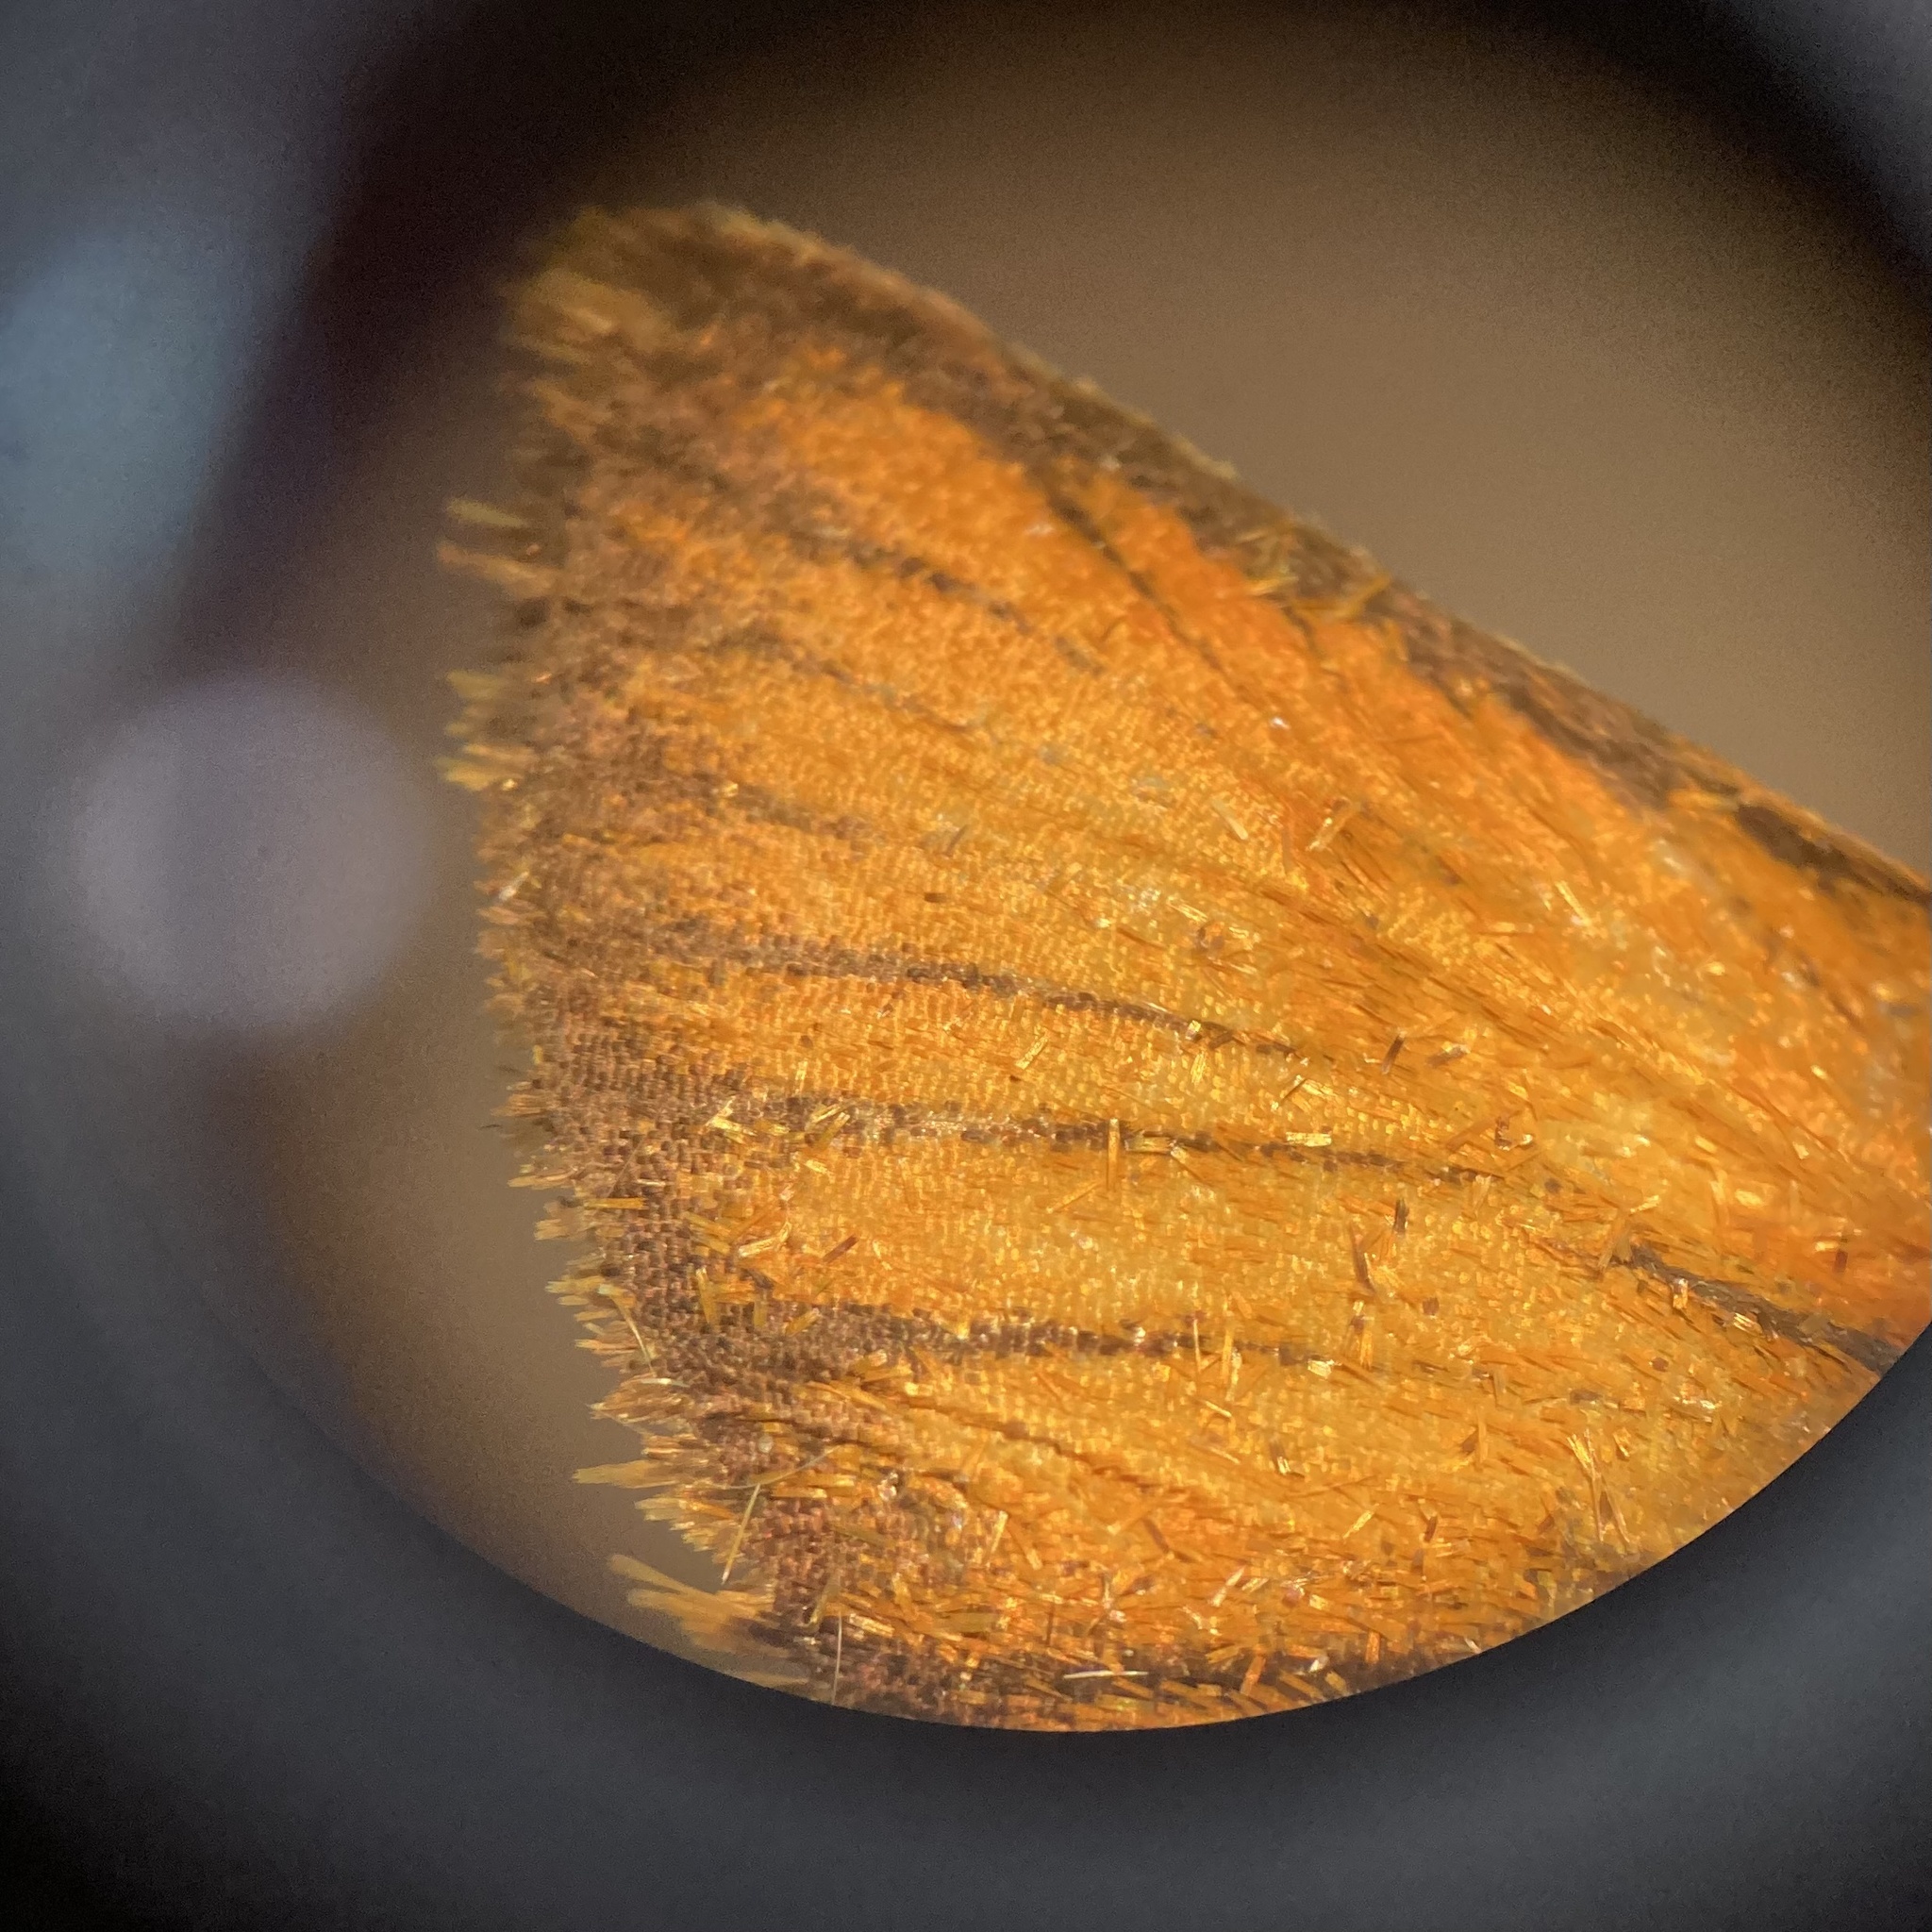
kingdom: Animalia
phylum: Arthropoda
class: Insecta
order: Lepidoptera
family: Hesperiidae
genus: Thymelicus
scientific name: Thymelicus lineola
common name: Essex skipper
